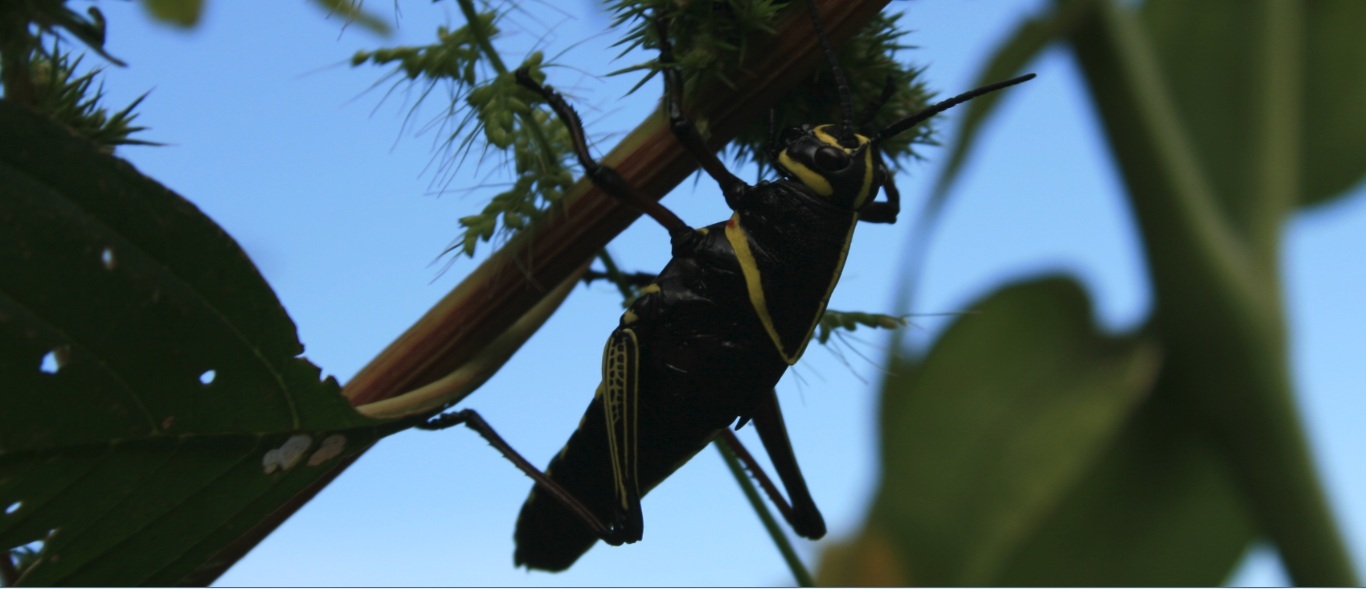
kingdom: Animalia
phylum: Arthropoda
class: Insecta
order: Orthoptera
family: Romaleidae
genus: Romalea
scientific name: Romalea
